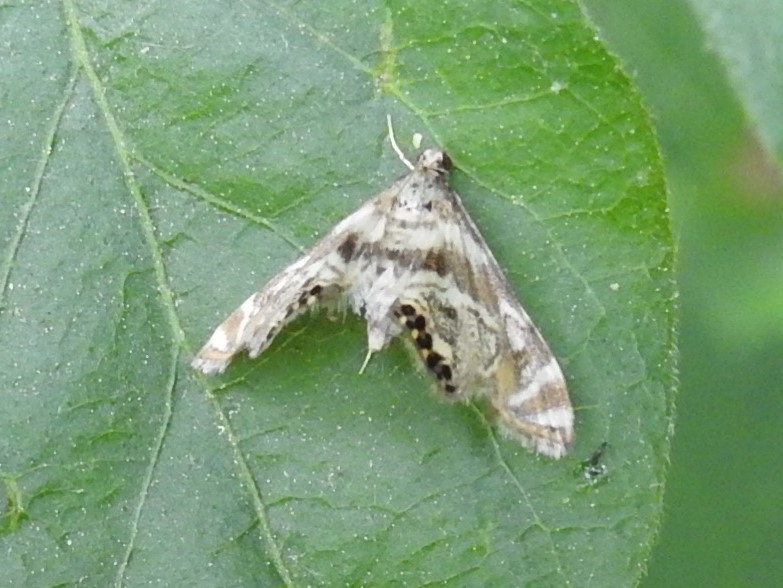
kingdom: Animalia
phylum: Arthropoda
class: Insecta
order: Lepidoptera
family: Crambidae
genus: Petrophila
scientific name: Petrophila canadensis
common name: Canadian petrophila
